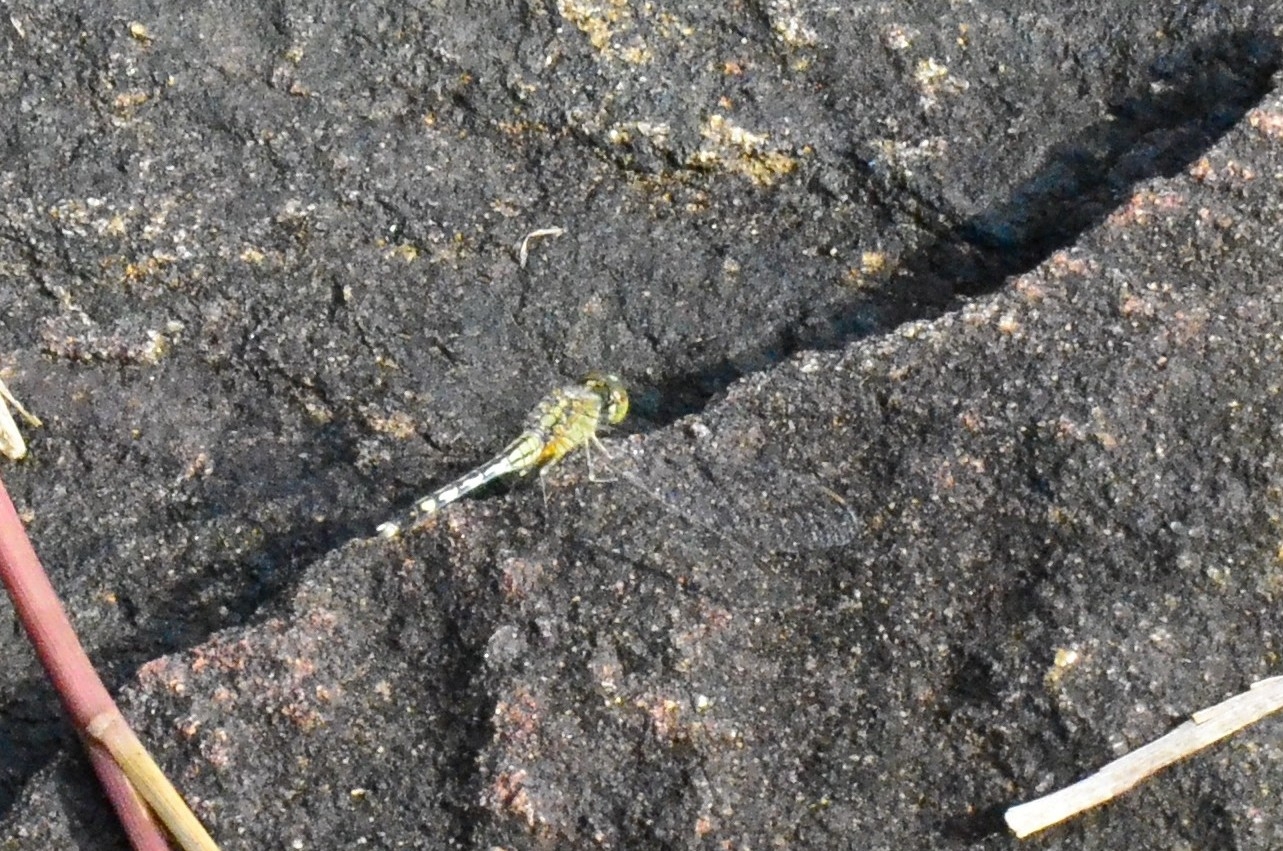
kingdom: Animalia
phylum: Arthropoda
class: Insecta
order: Odonata
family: Libellulidae
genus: Diplacodes
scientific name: Diplacodes trivialis
